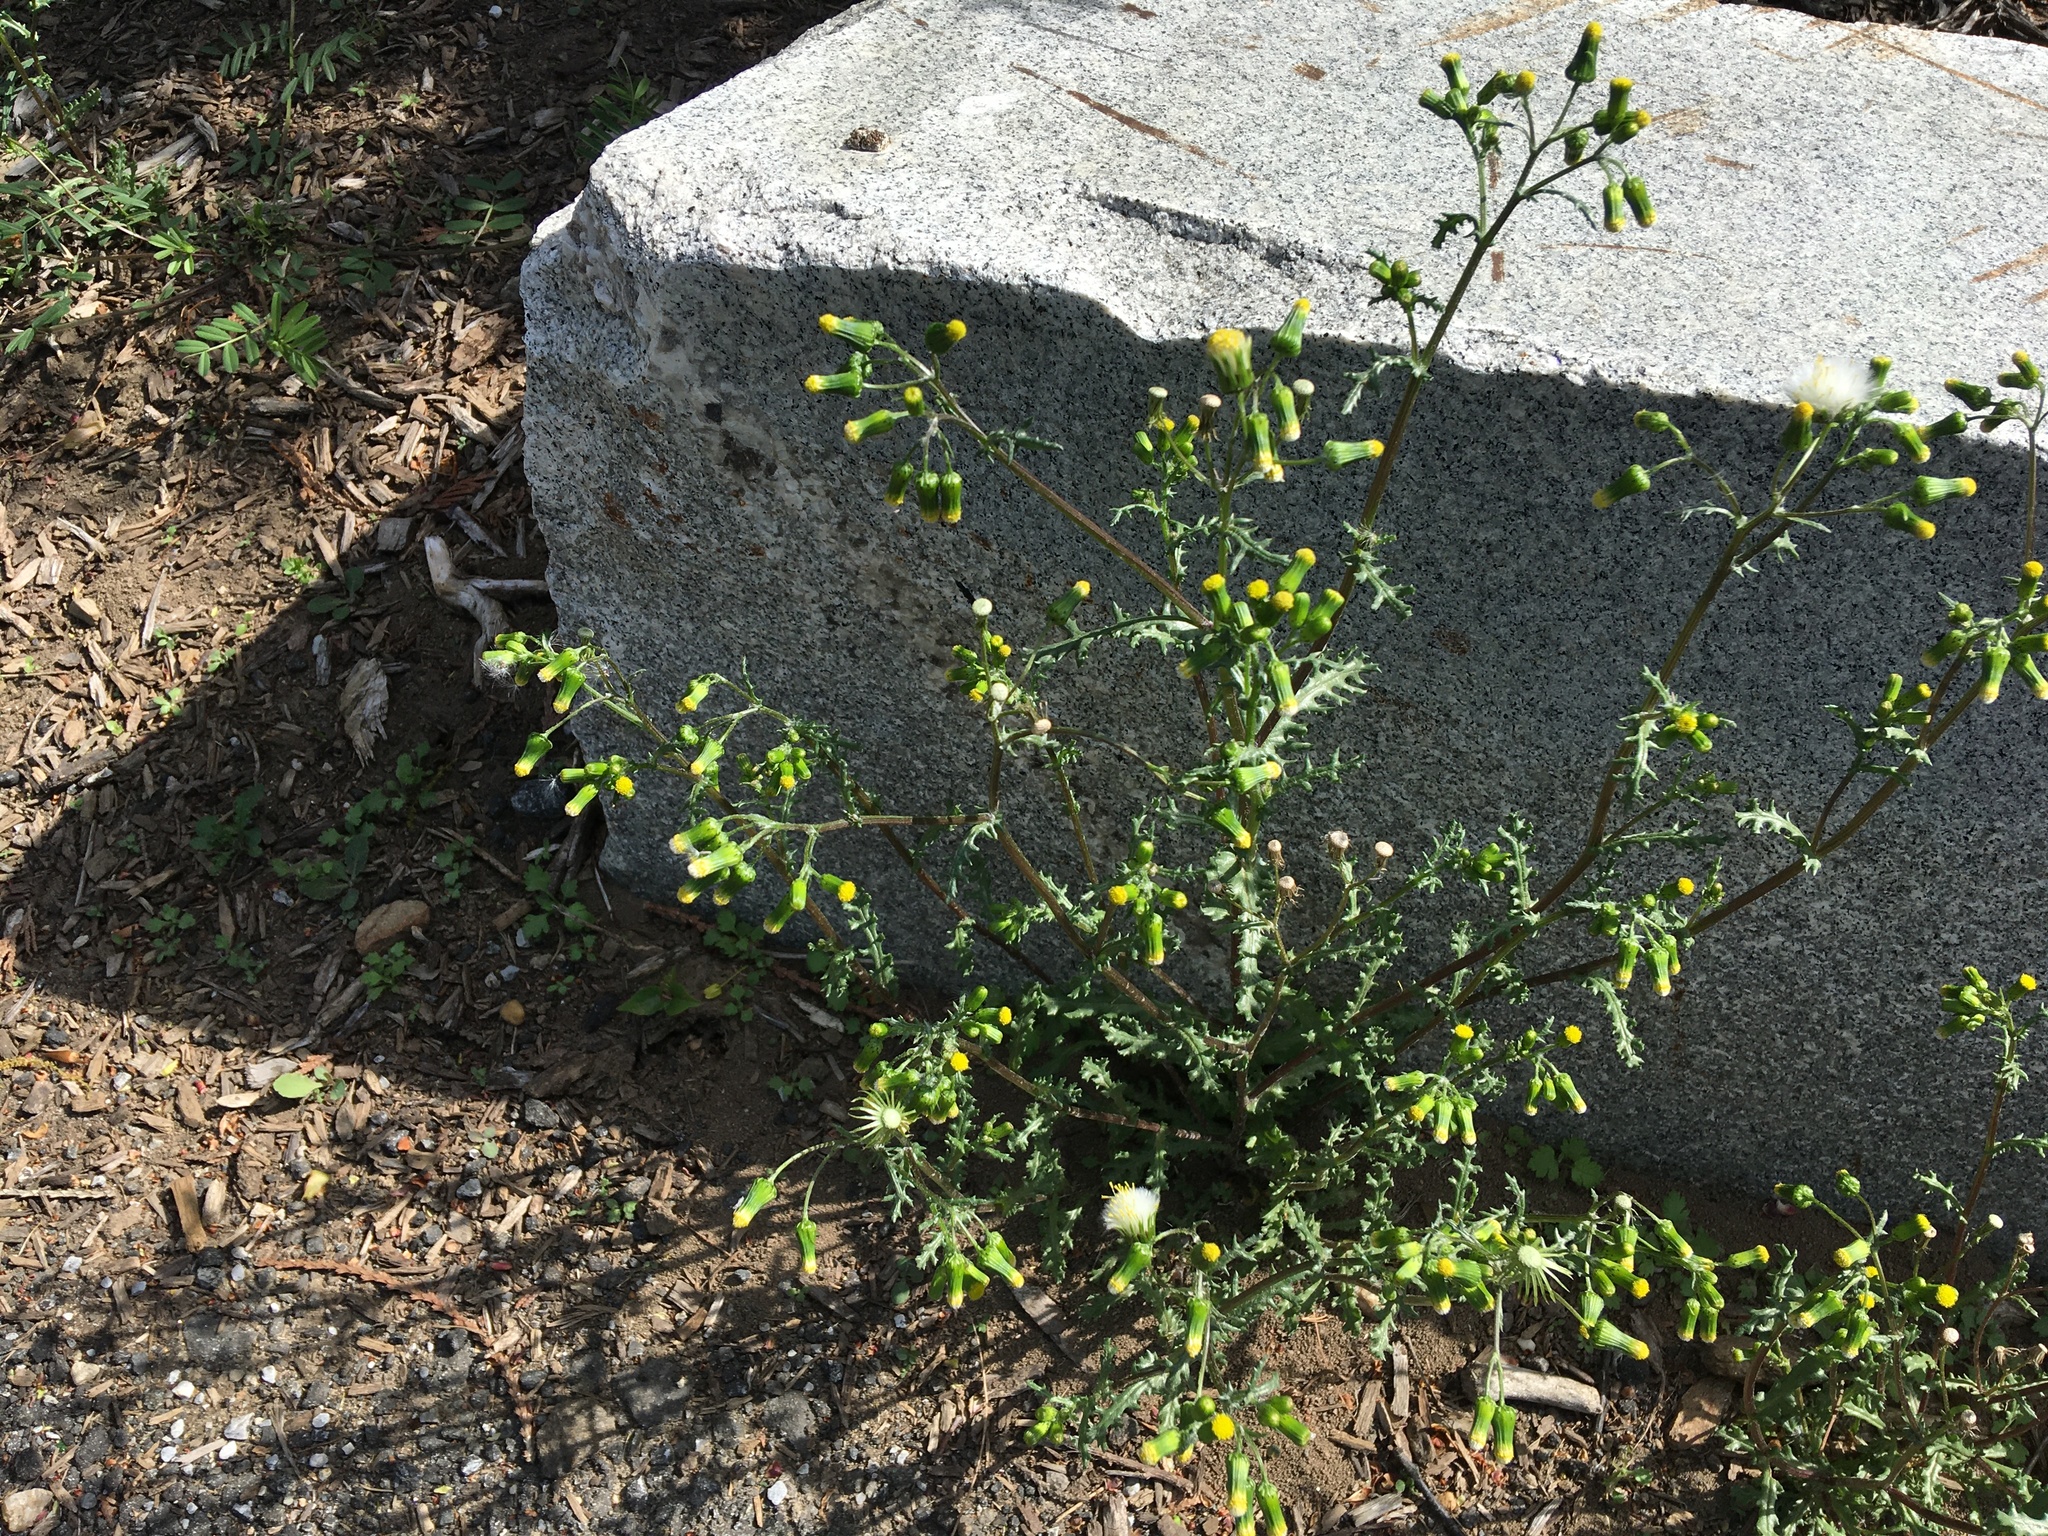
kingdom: Plantae
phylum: Tracheophyta
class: Magnoliopsida
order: Asterales
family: Asteraceae
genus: Senecio
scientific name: Senecio vulgaris
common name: Old-man-in-the-spring
